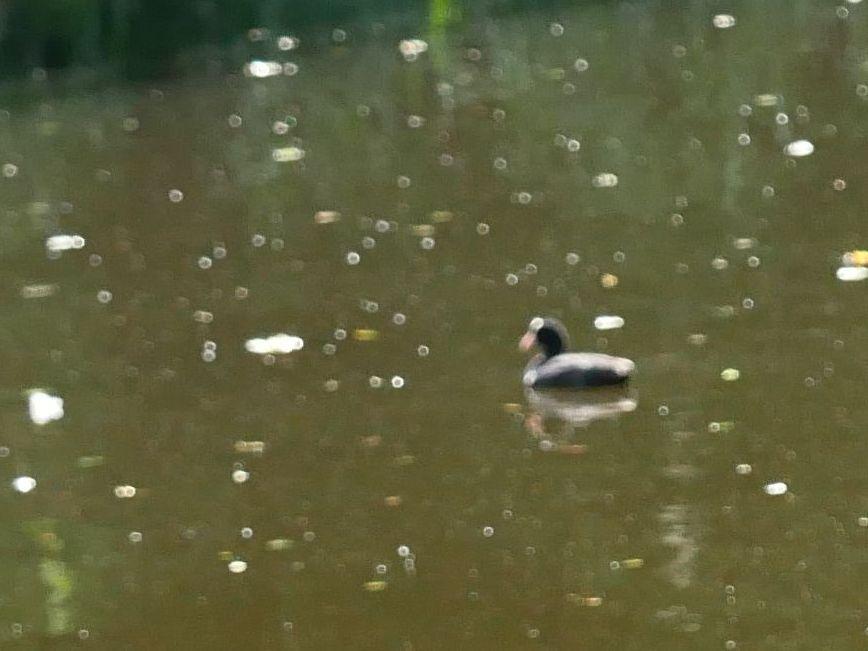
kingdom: Animalia
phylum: Chordata
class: Aves
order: Gruiformes
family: Rallidae
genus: Fulica
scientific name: Fulica atra
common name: Eurasian coot
